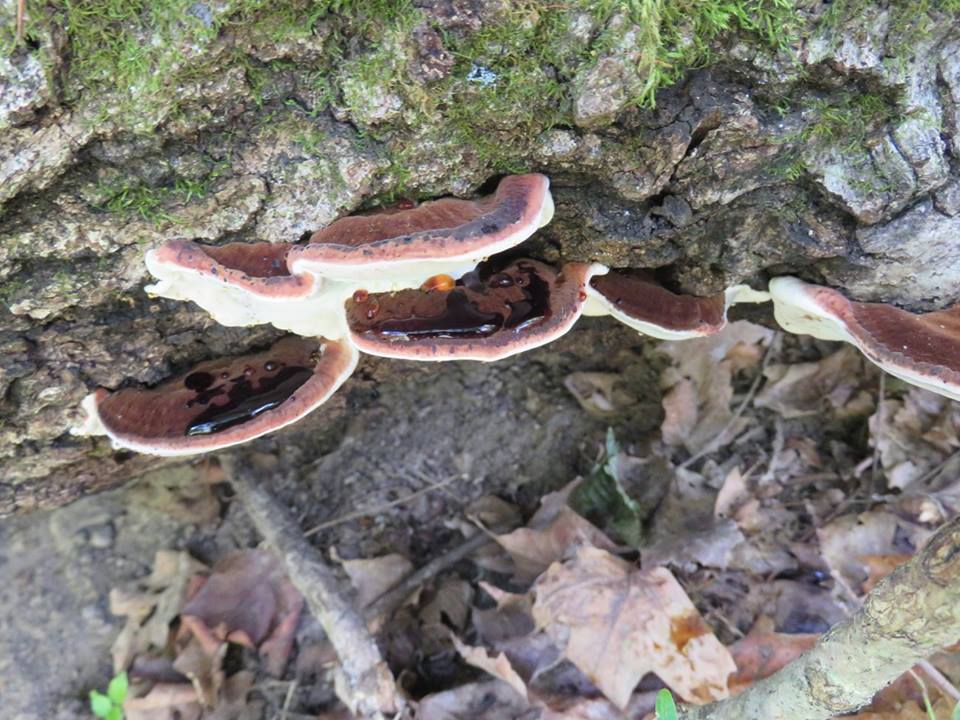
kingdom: Fungi
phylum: Basidiomycota
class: Agaricomycetes
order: Polyporales
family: Ischnodermataceae
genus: Ischnoderma
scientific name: Ischnoderma resinosum
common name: Resinous polypore
